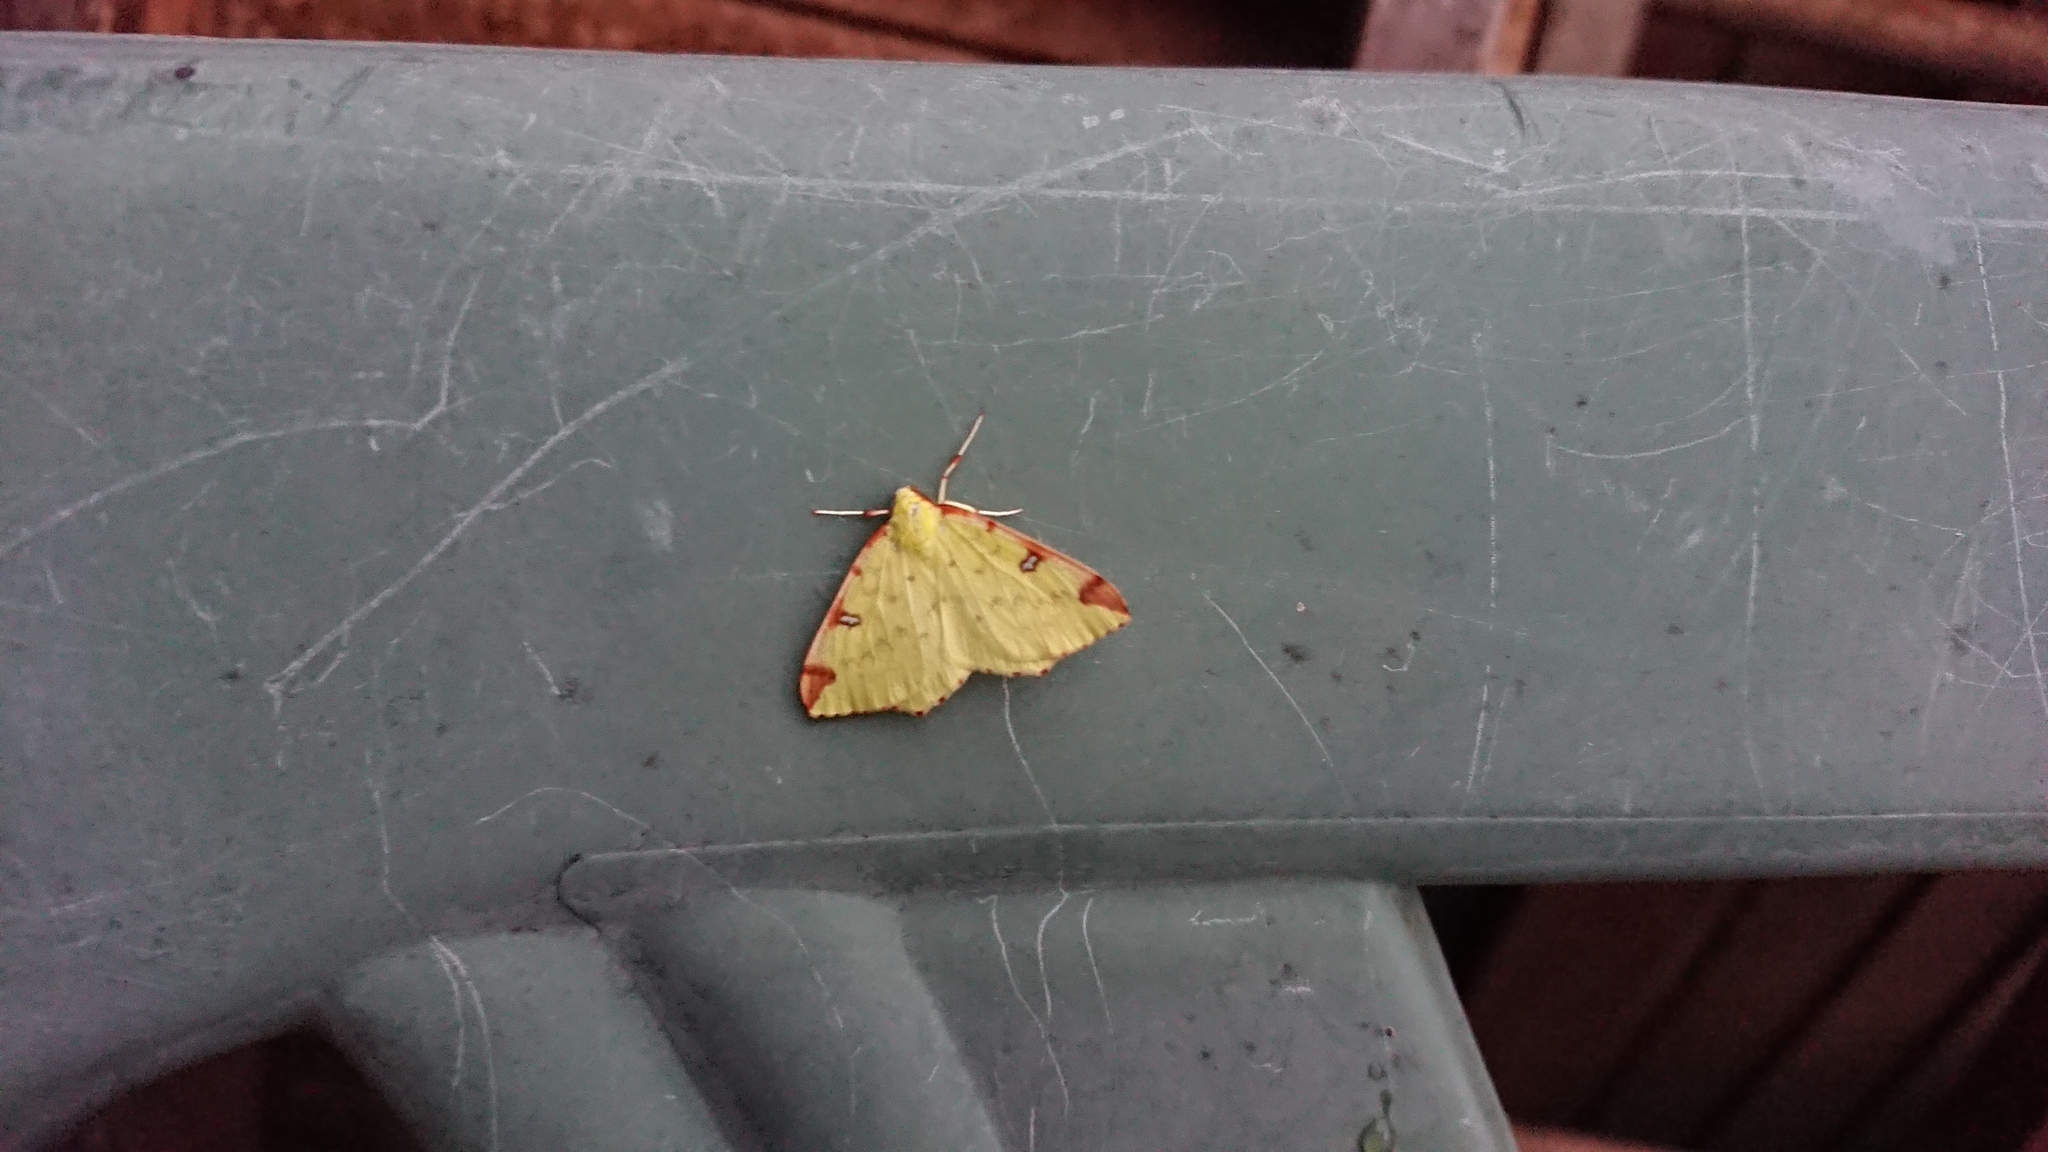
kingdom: Animalia
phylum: Arthropoda
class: Insecta
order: Lepidoptera
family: Geometridae
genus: Opisthograptis
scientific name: Opisthograptis luteolata
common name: Brimstone moth
